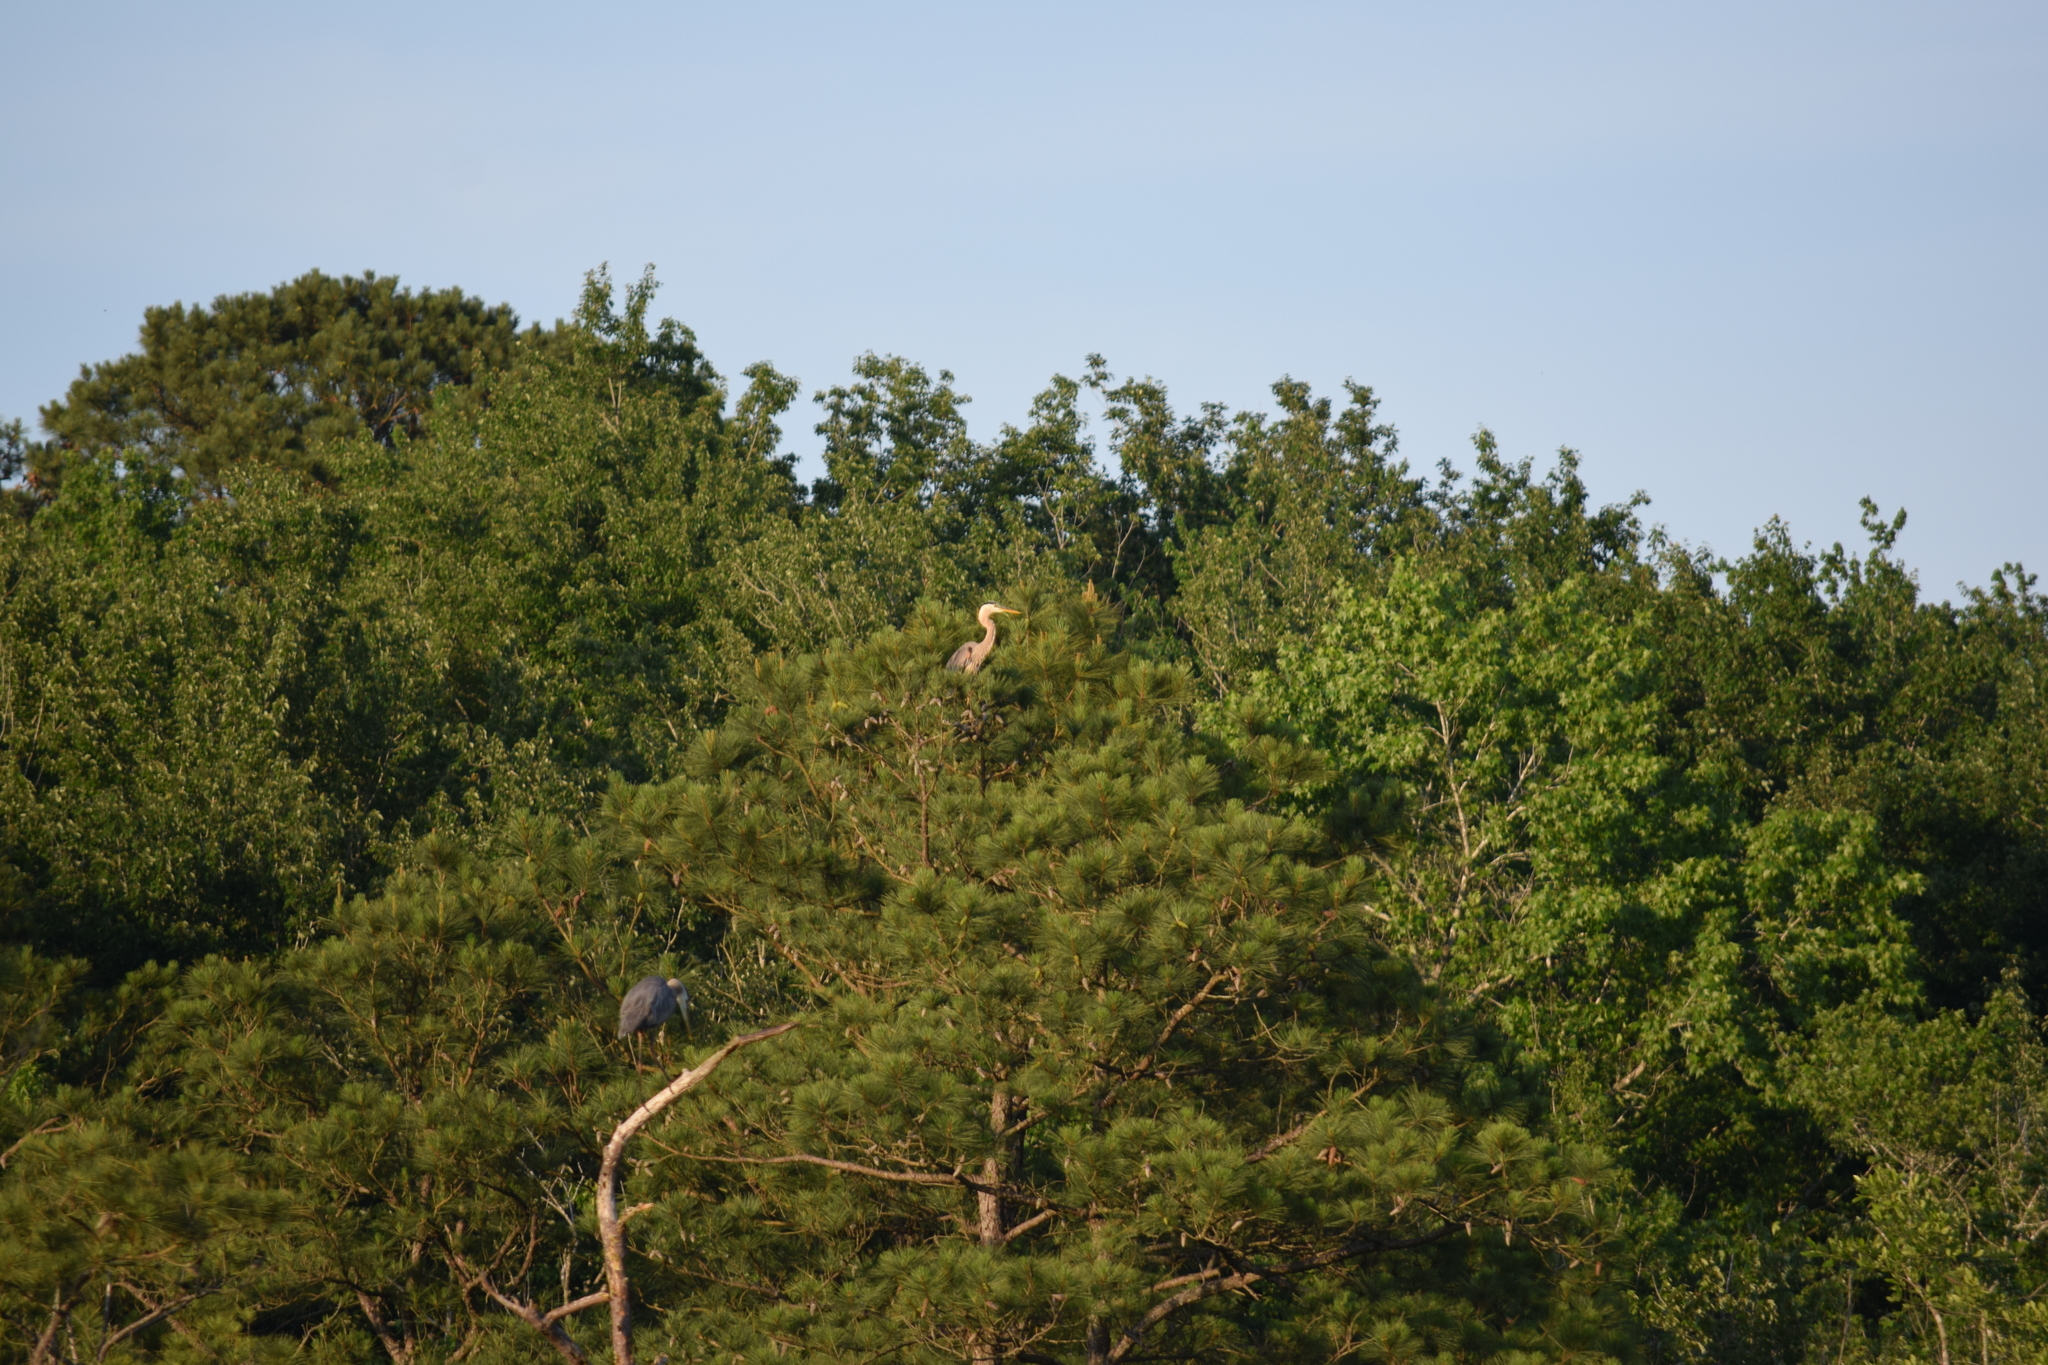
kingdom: Animalia
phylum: Chordata
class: Aves
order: Pelecaniformes
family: Ardeidae
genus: Ardea
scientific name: Ardea herodias
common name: Great blue heron
